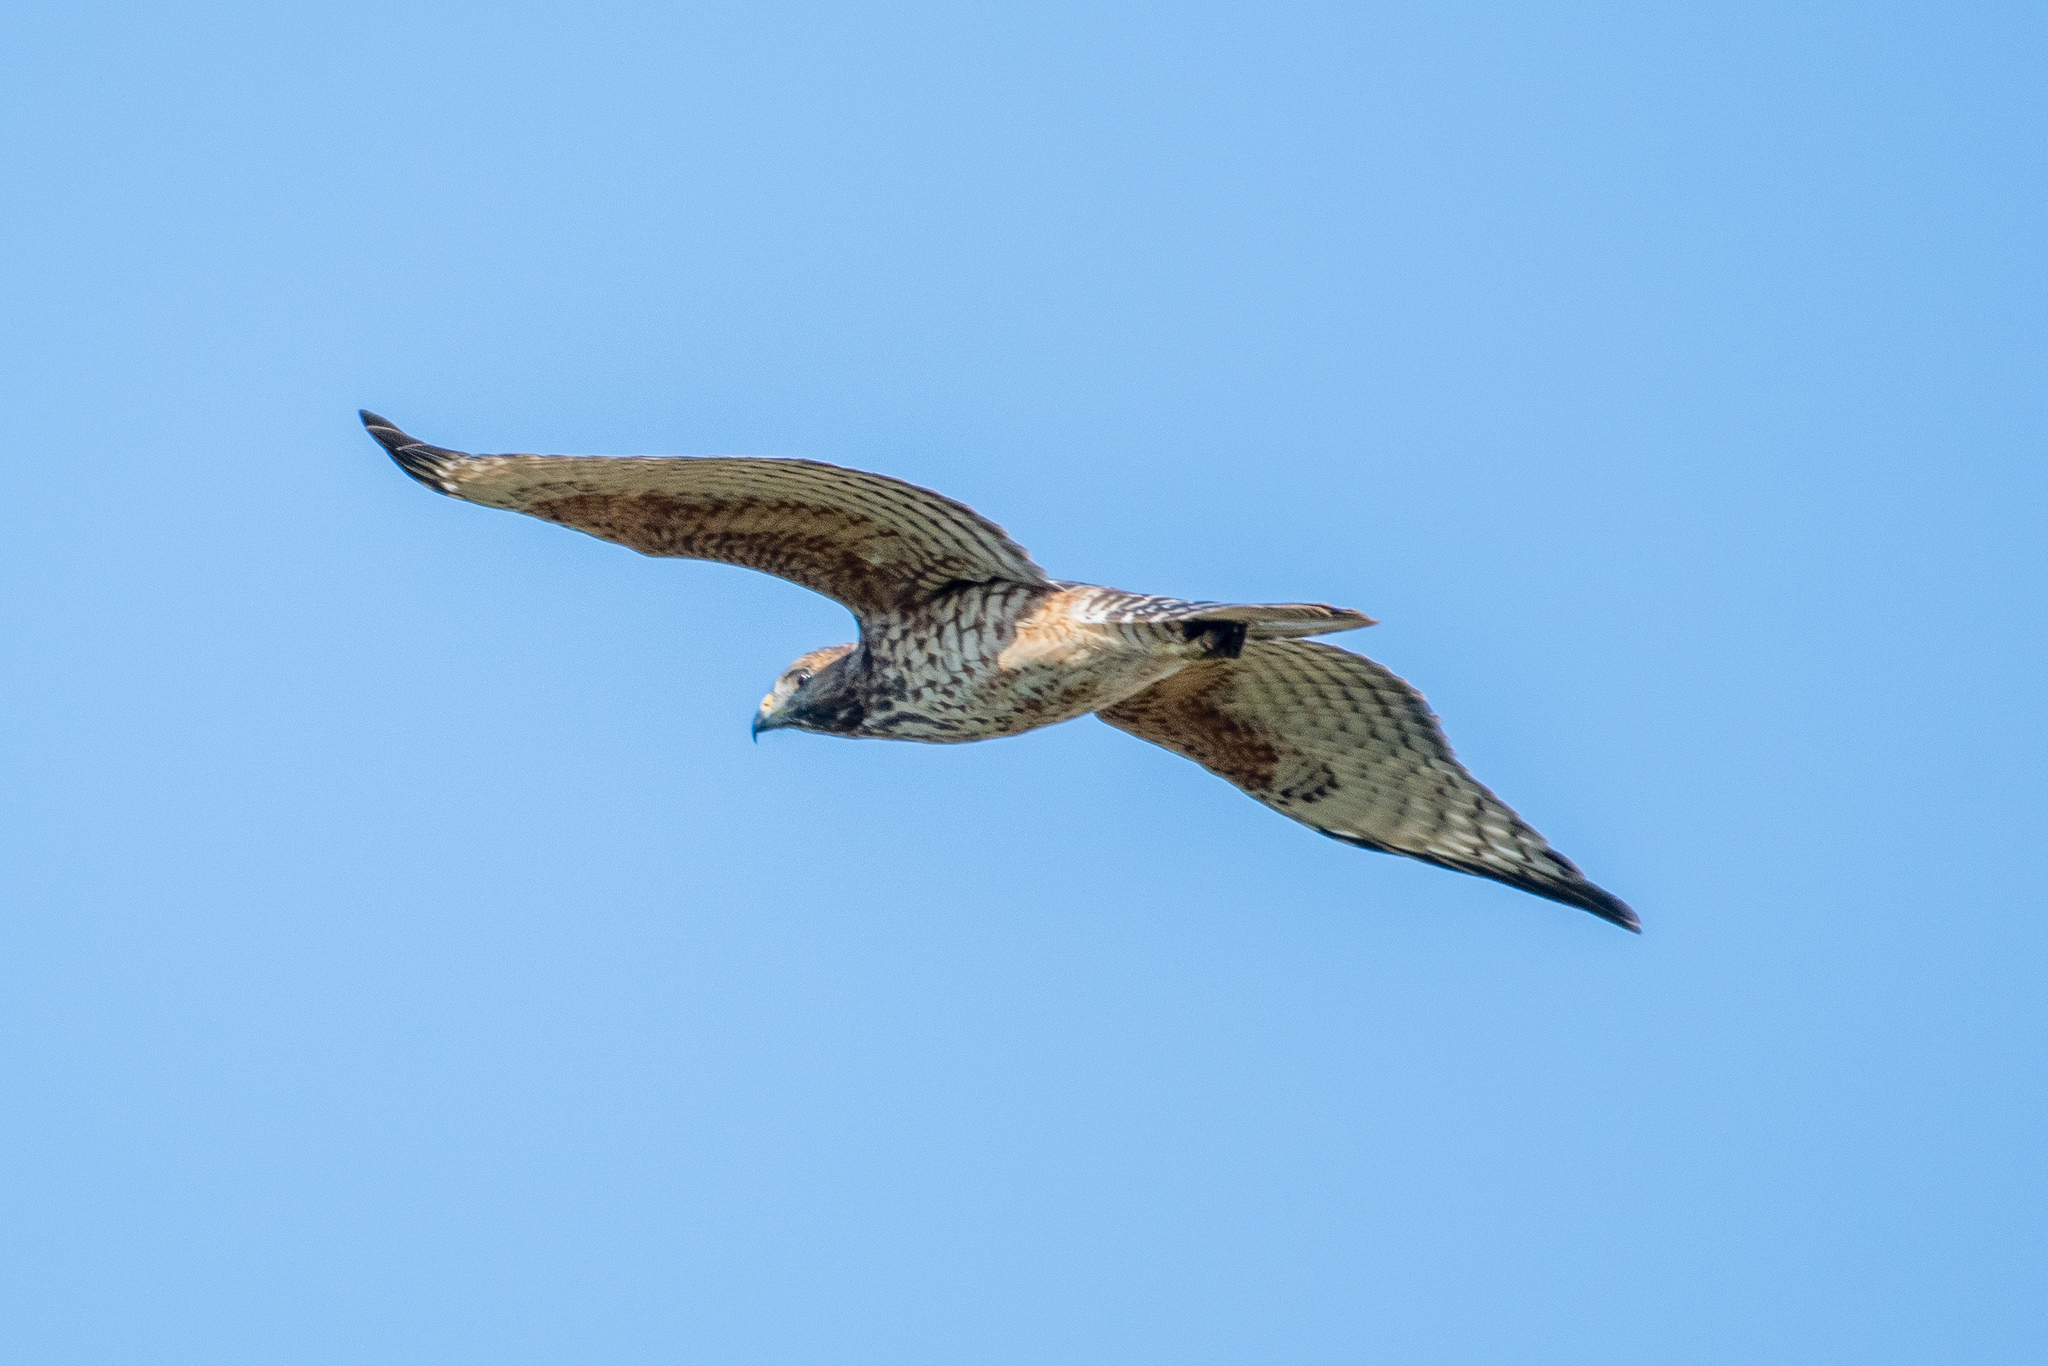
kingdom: Animalia
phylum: Chordata
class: Aves
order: Accipitriformes
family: Accipitridae
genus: Buteo
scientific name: Buteo lineatus
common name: Red-shouldered hawk
